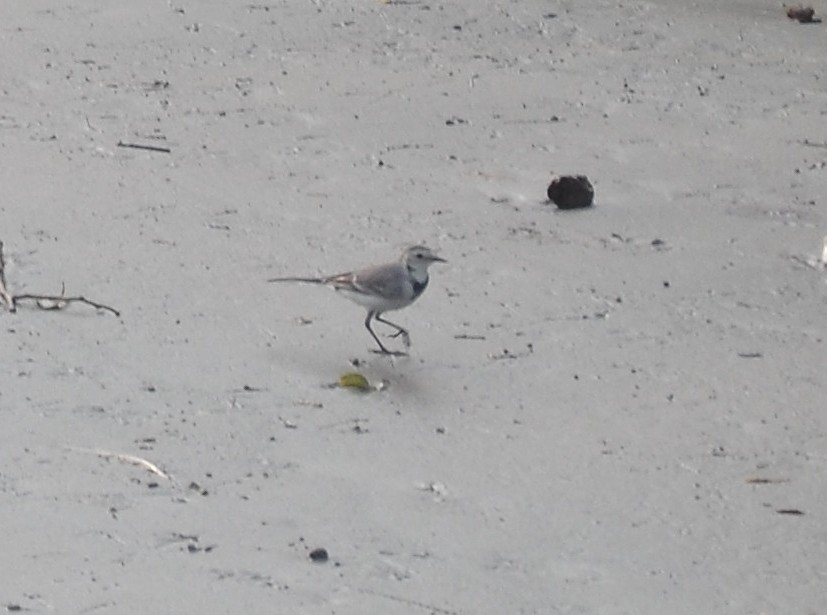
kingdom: Animalia
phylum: Chordata
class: Aves
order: Passeriformes
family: Motacillidae
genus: Motacilla
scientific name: Motacilla alba
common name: White wagtail
